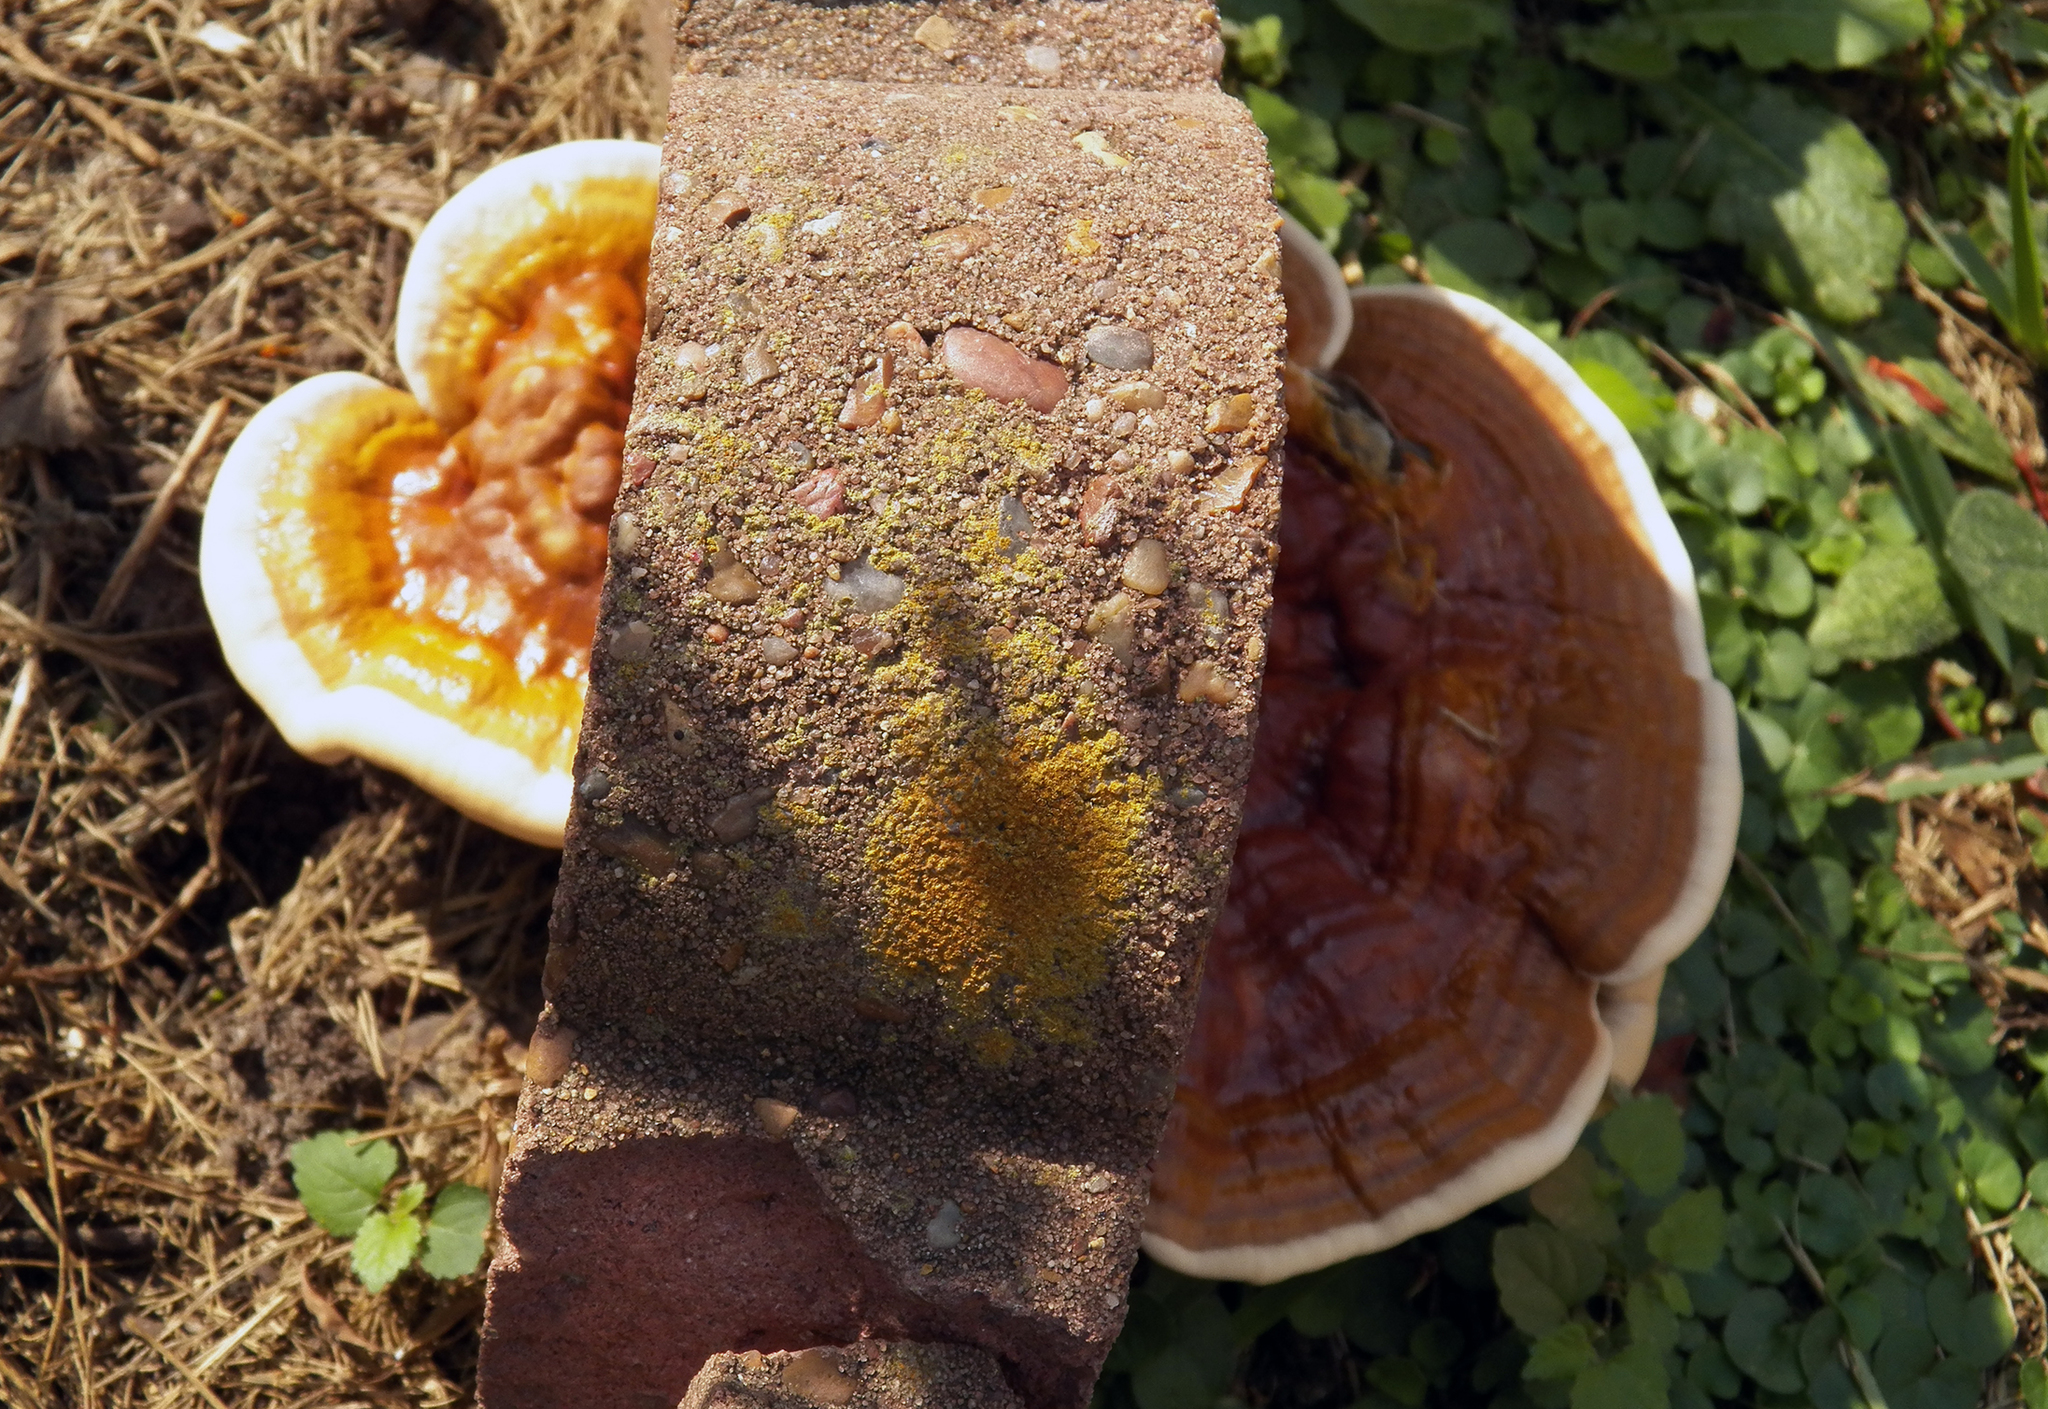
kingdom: Fungi
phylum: Basidiomycota
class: Agaricomycetes
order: Polyporales
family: Polyporaceae
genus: Ganoderma
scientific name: Ganoderma resinaceum
